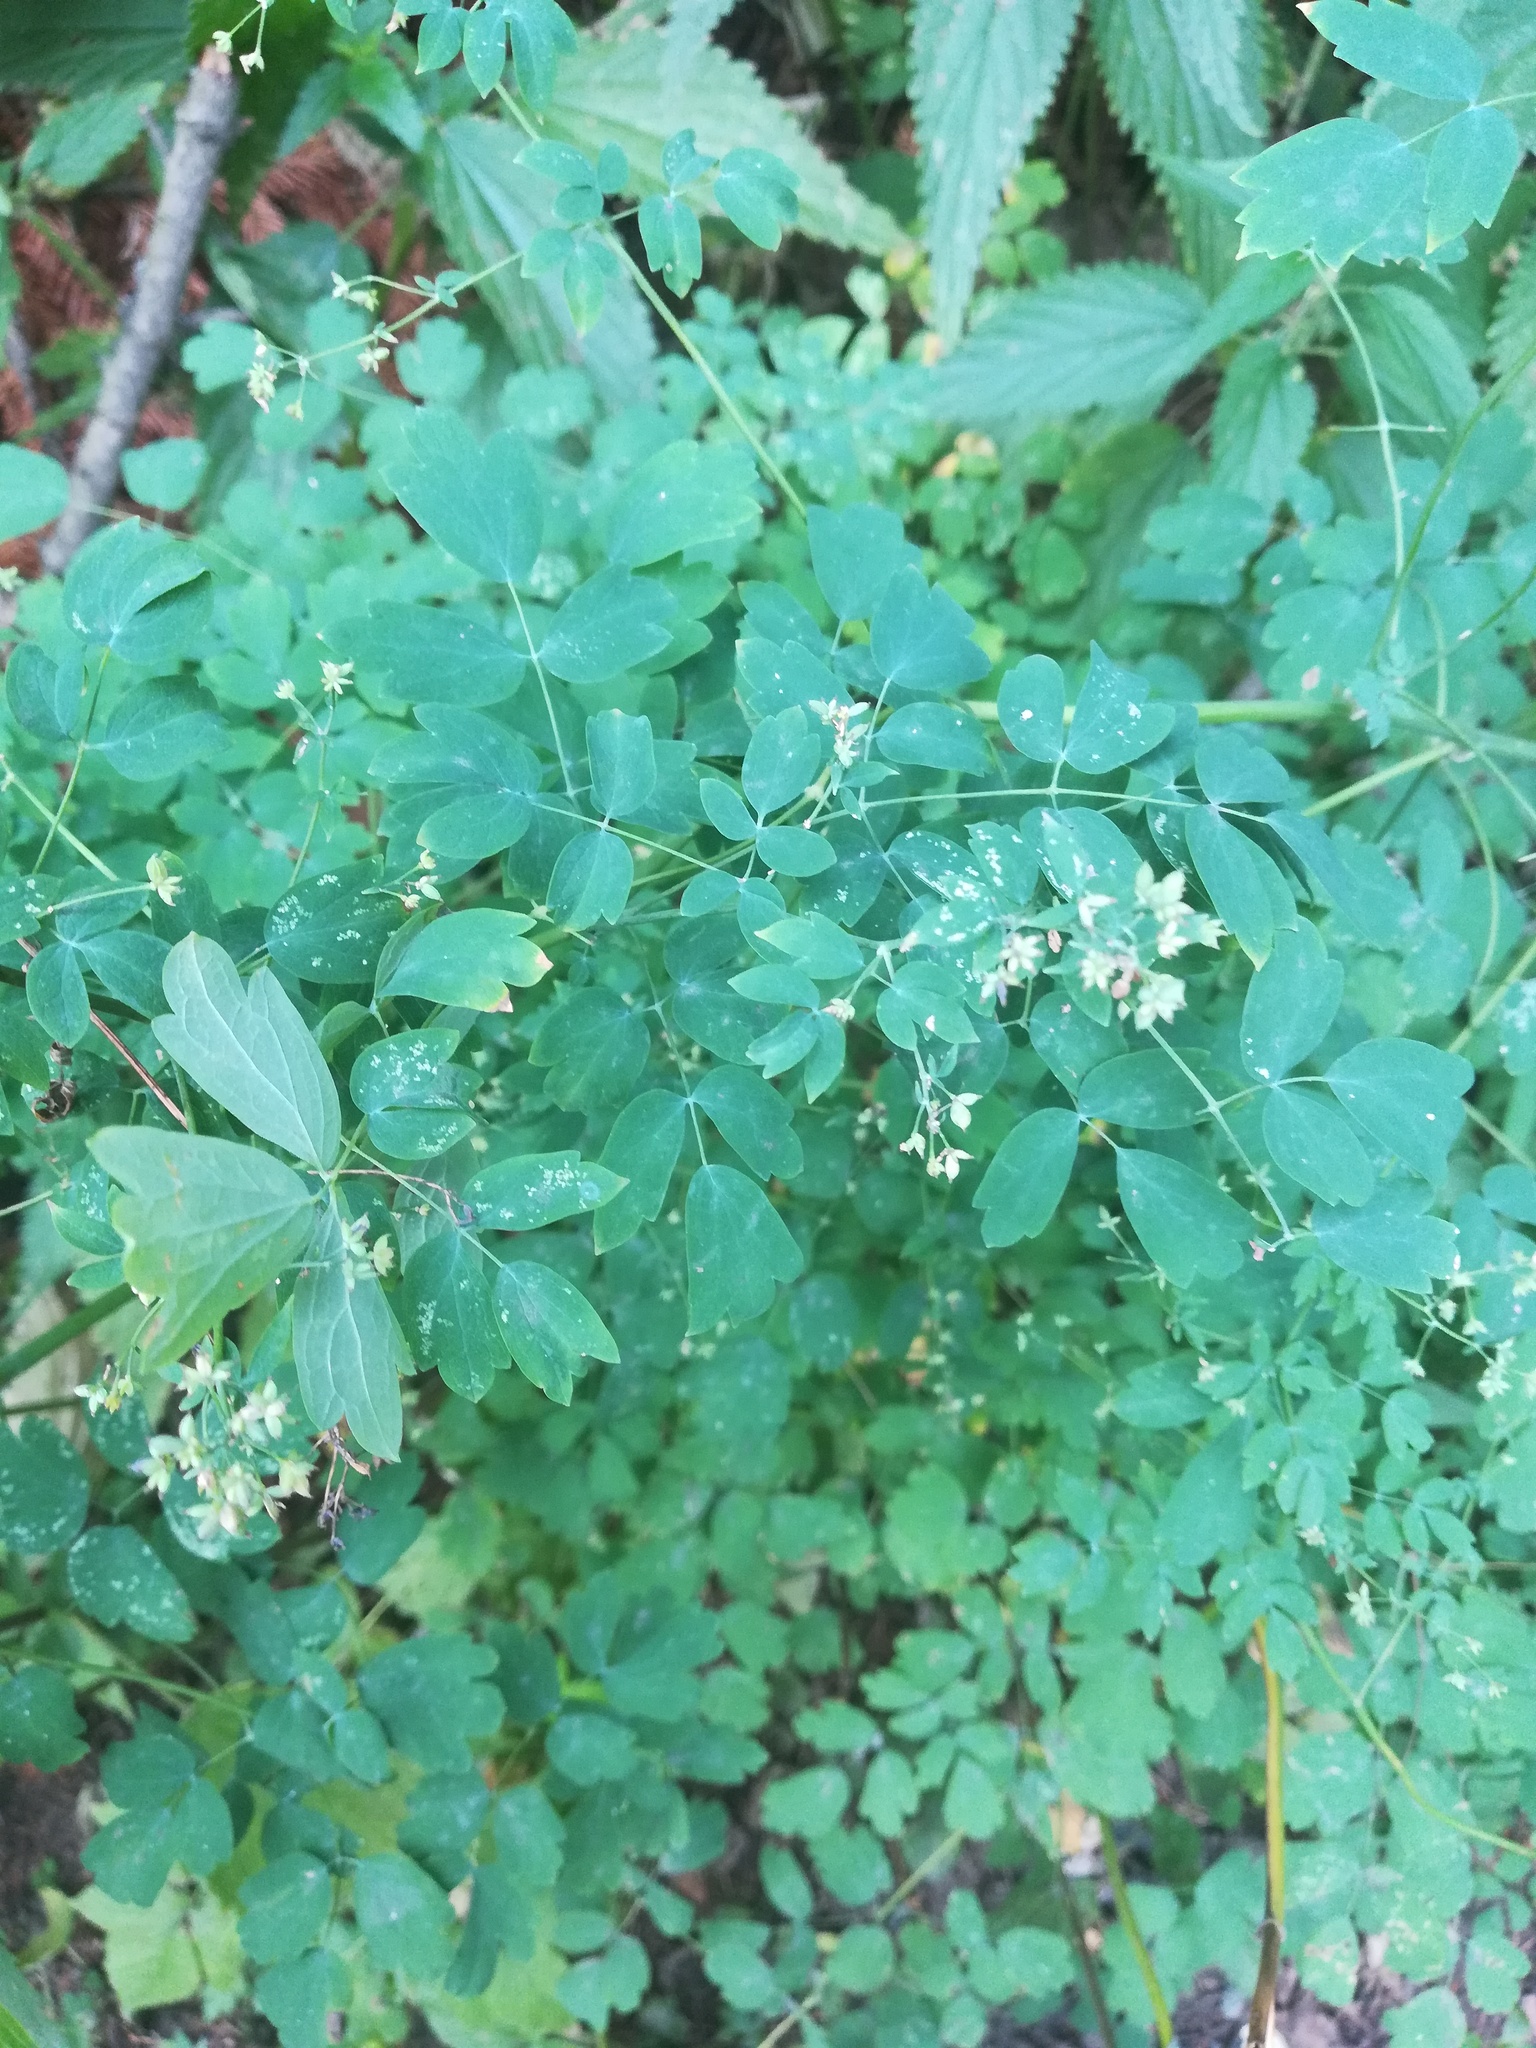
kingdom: Plantae
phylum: Tracheophyta
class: Magnoliopsida
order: Ranunculales
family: Ranunculaceae
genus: Thalictrum
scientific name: Thalictrum minus
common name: Lesser meadow-rue
